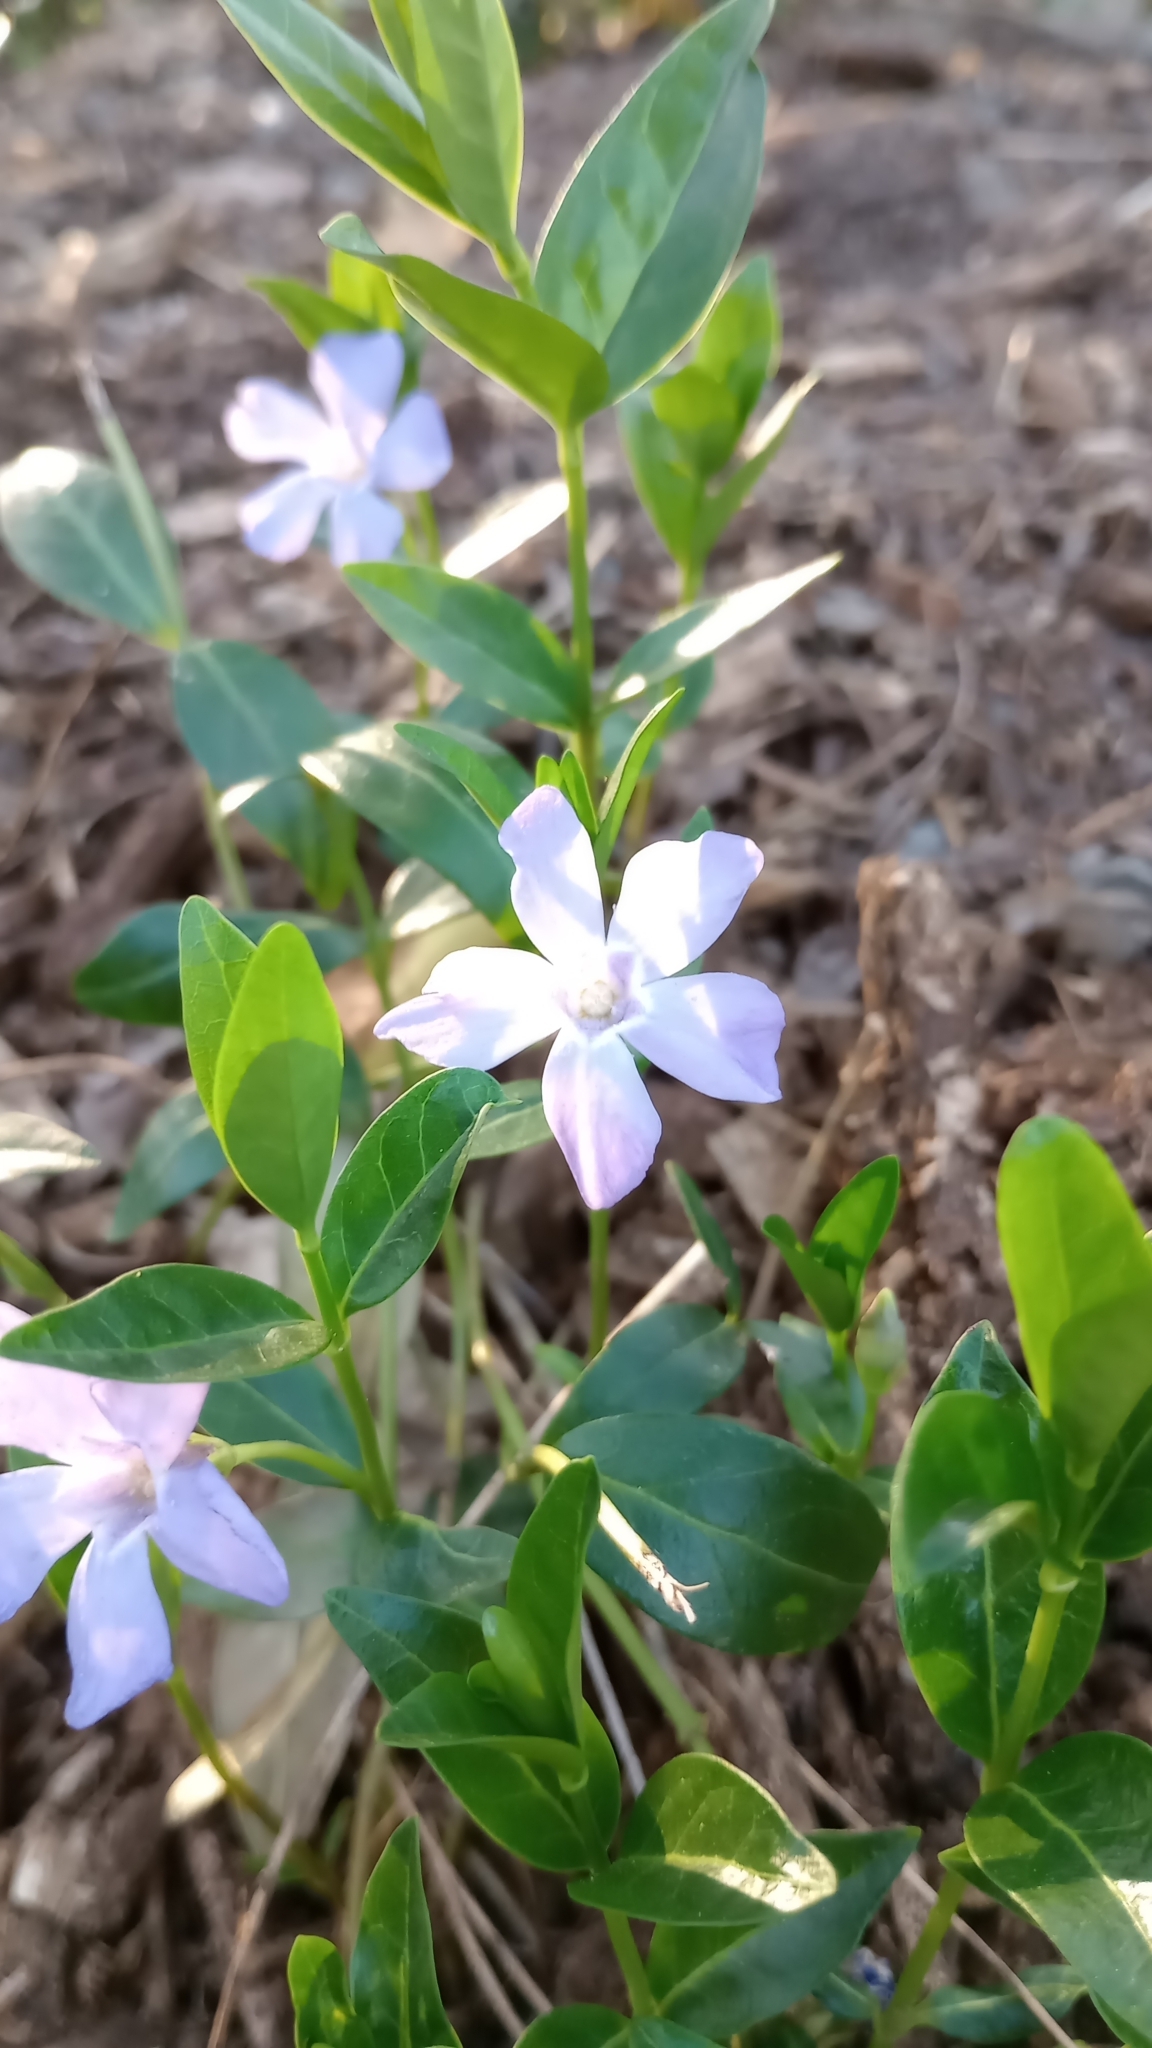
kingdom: Plantae
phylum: Tracheophyta
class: Magnoliopsida
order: Gentianales
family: Apocynaceae
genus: Vinca
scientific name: Vinca minor
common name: Lesser periwinkle
